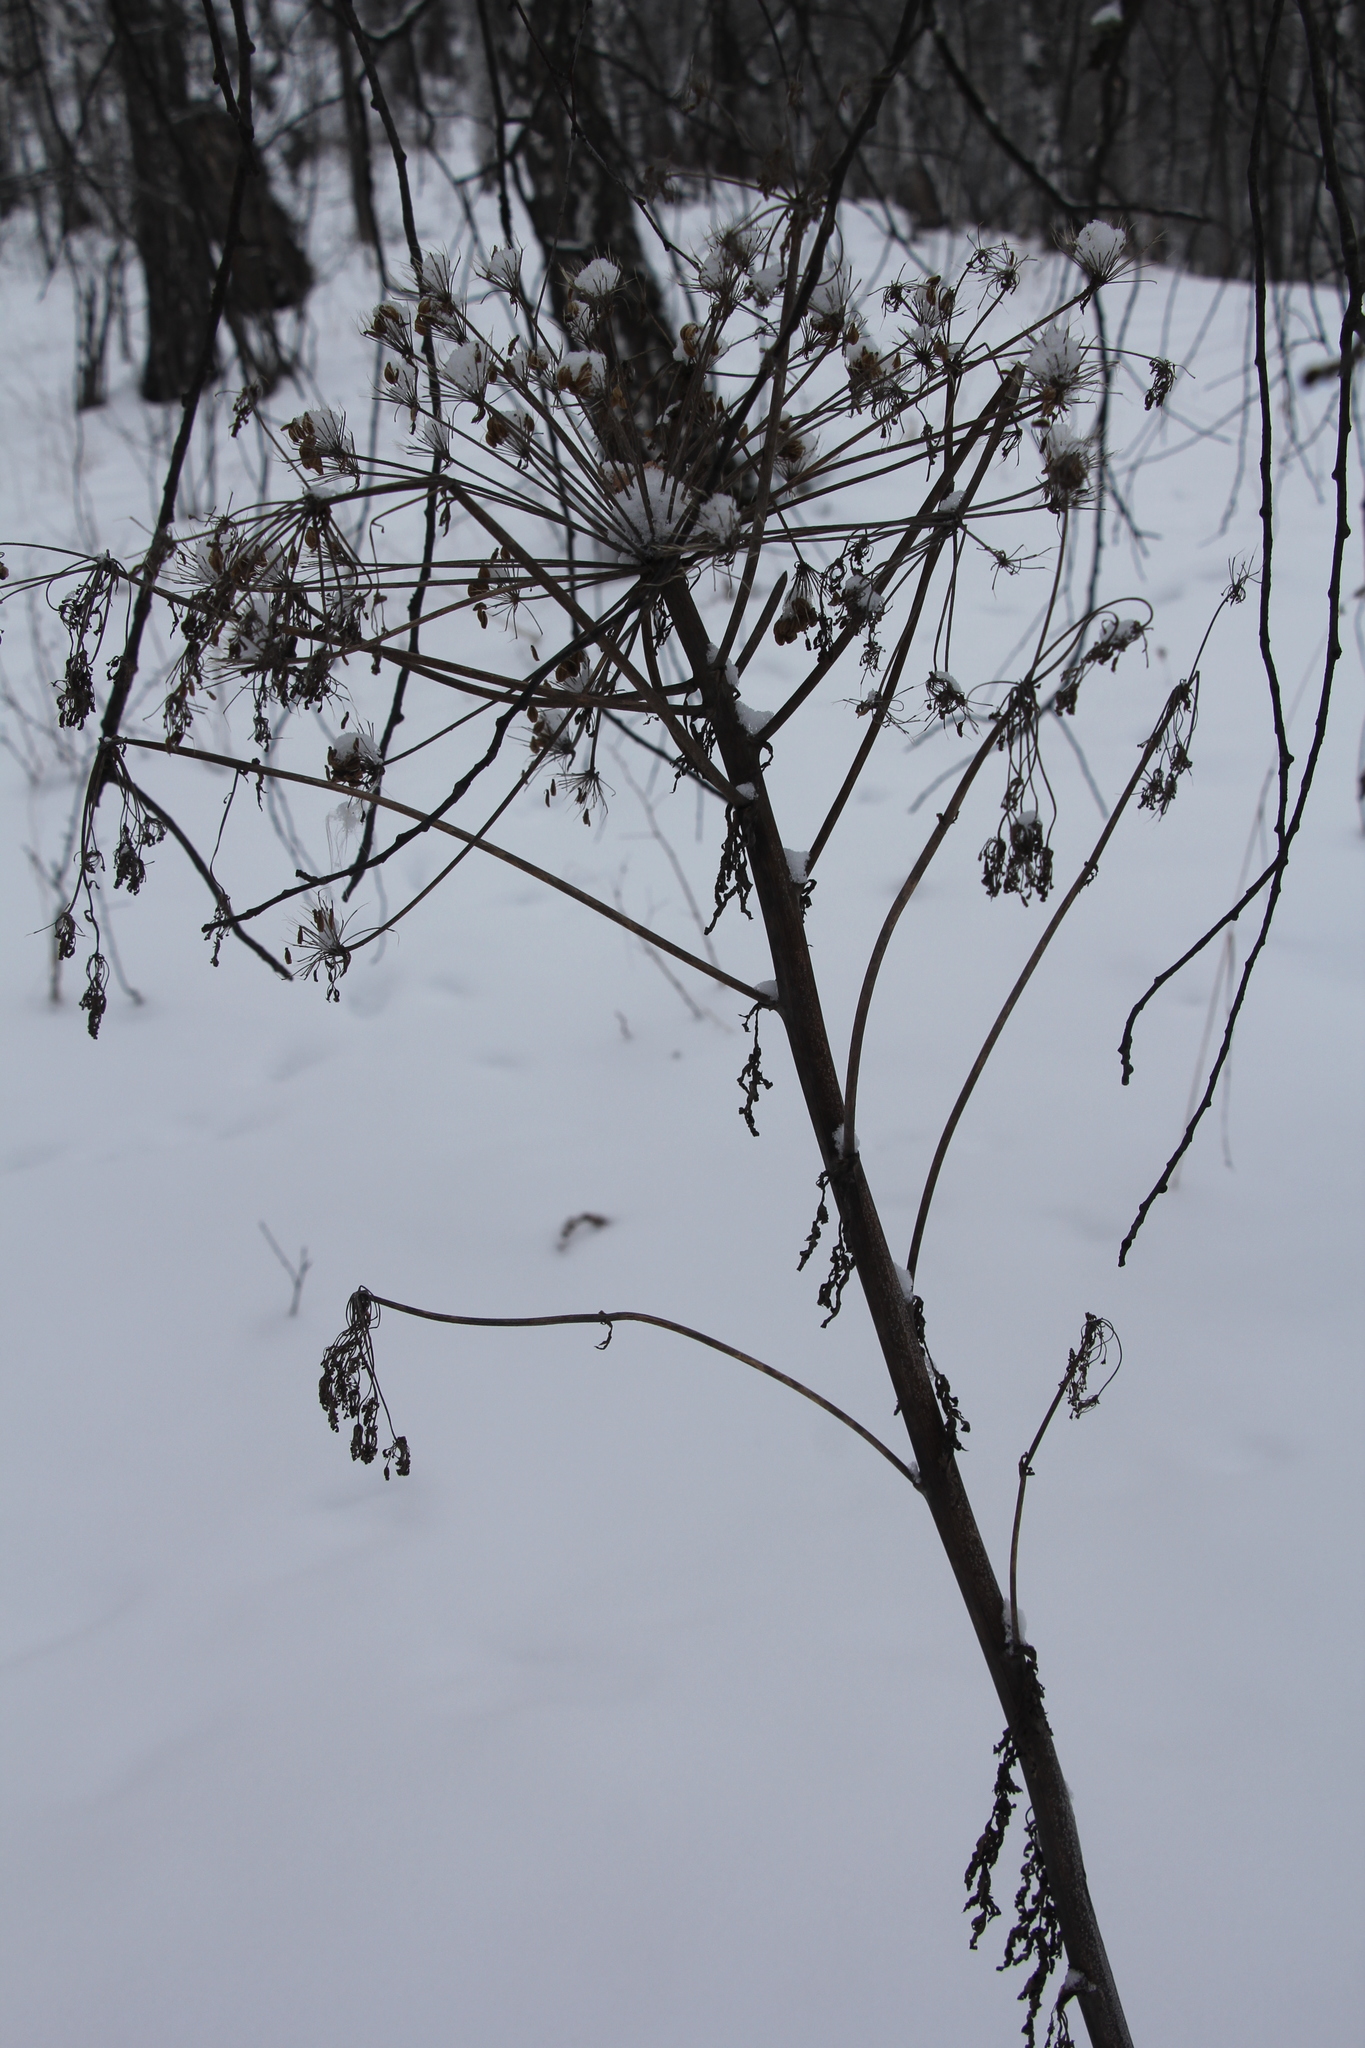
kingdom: Plantae
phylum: Tracheophyta
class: Magnoliopsida
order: Apiales
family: Apiaceae
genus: Anthriscus
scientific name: Anthriscus sylvestris
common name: Cow parsley
